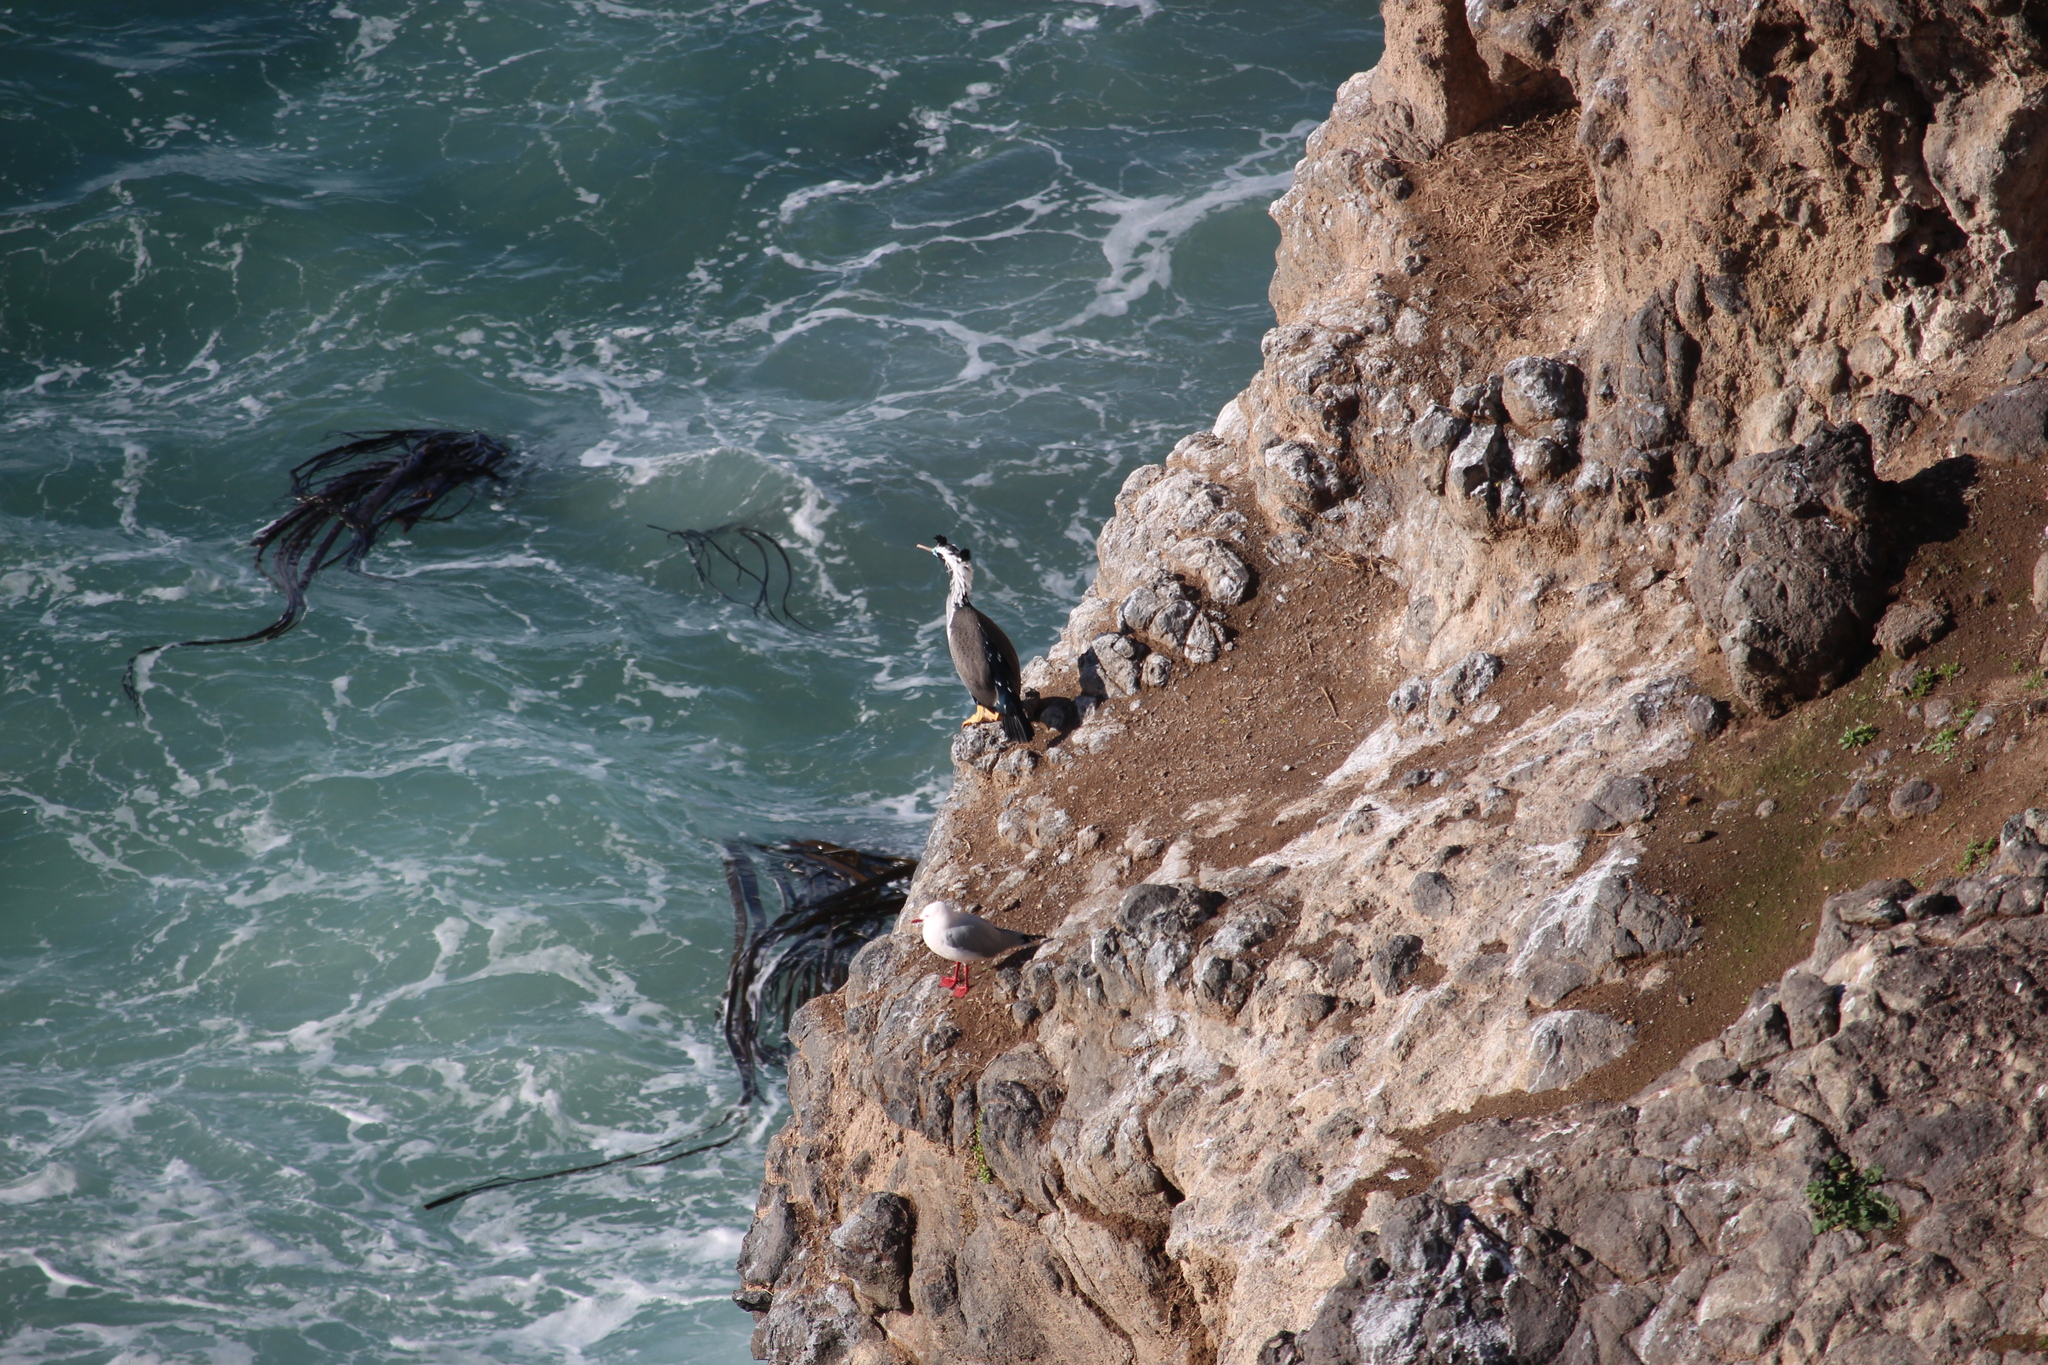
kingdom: Animalia
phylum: Chordata
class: Aves
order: Suliformes
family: Phalacrocoracidae
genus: Phalacrocorax
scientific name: Phalacrocorax punctatus
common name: Spotted shag
